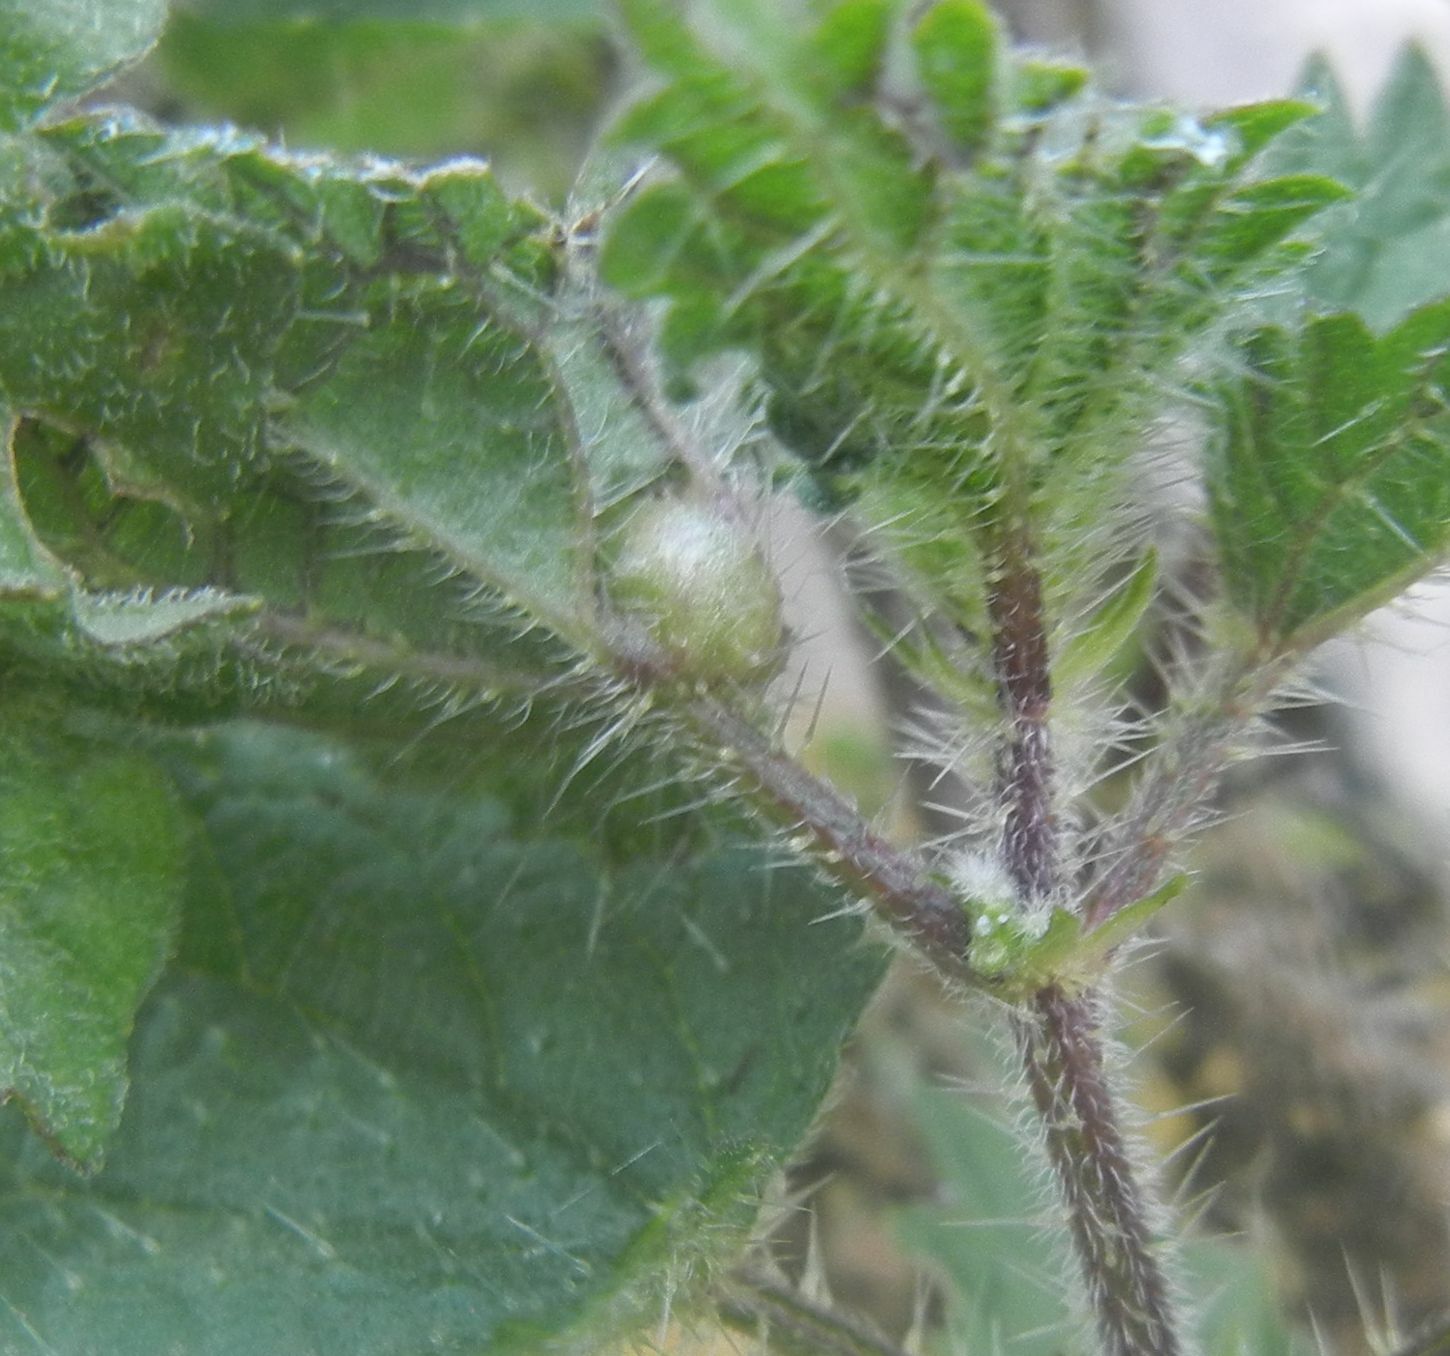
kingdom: Animalia
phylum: Arthropoda
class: Insecta
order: Diptera
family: Cecidomyiidae
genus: Dasineura
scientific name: Dasineura urticae
